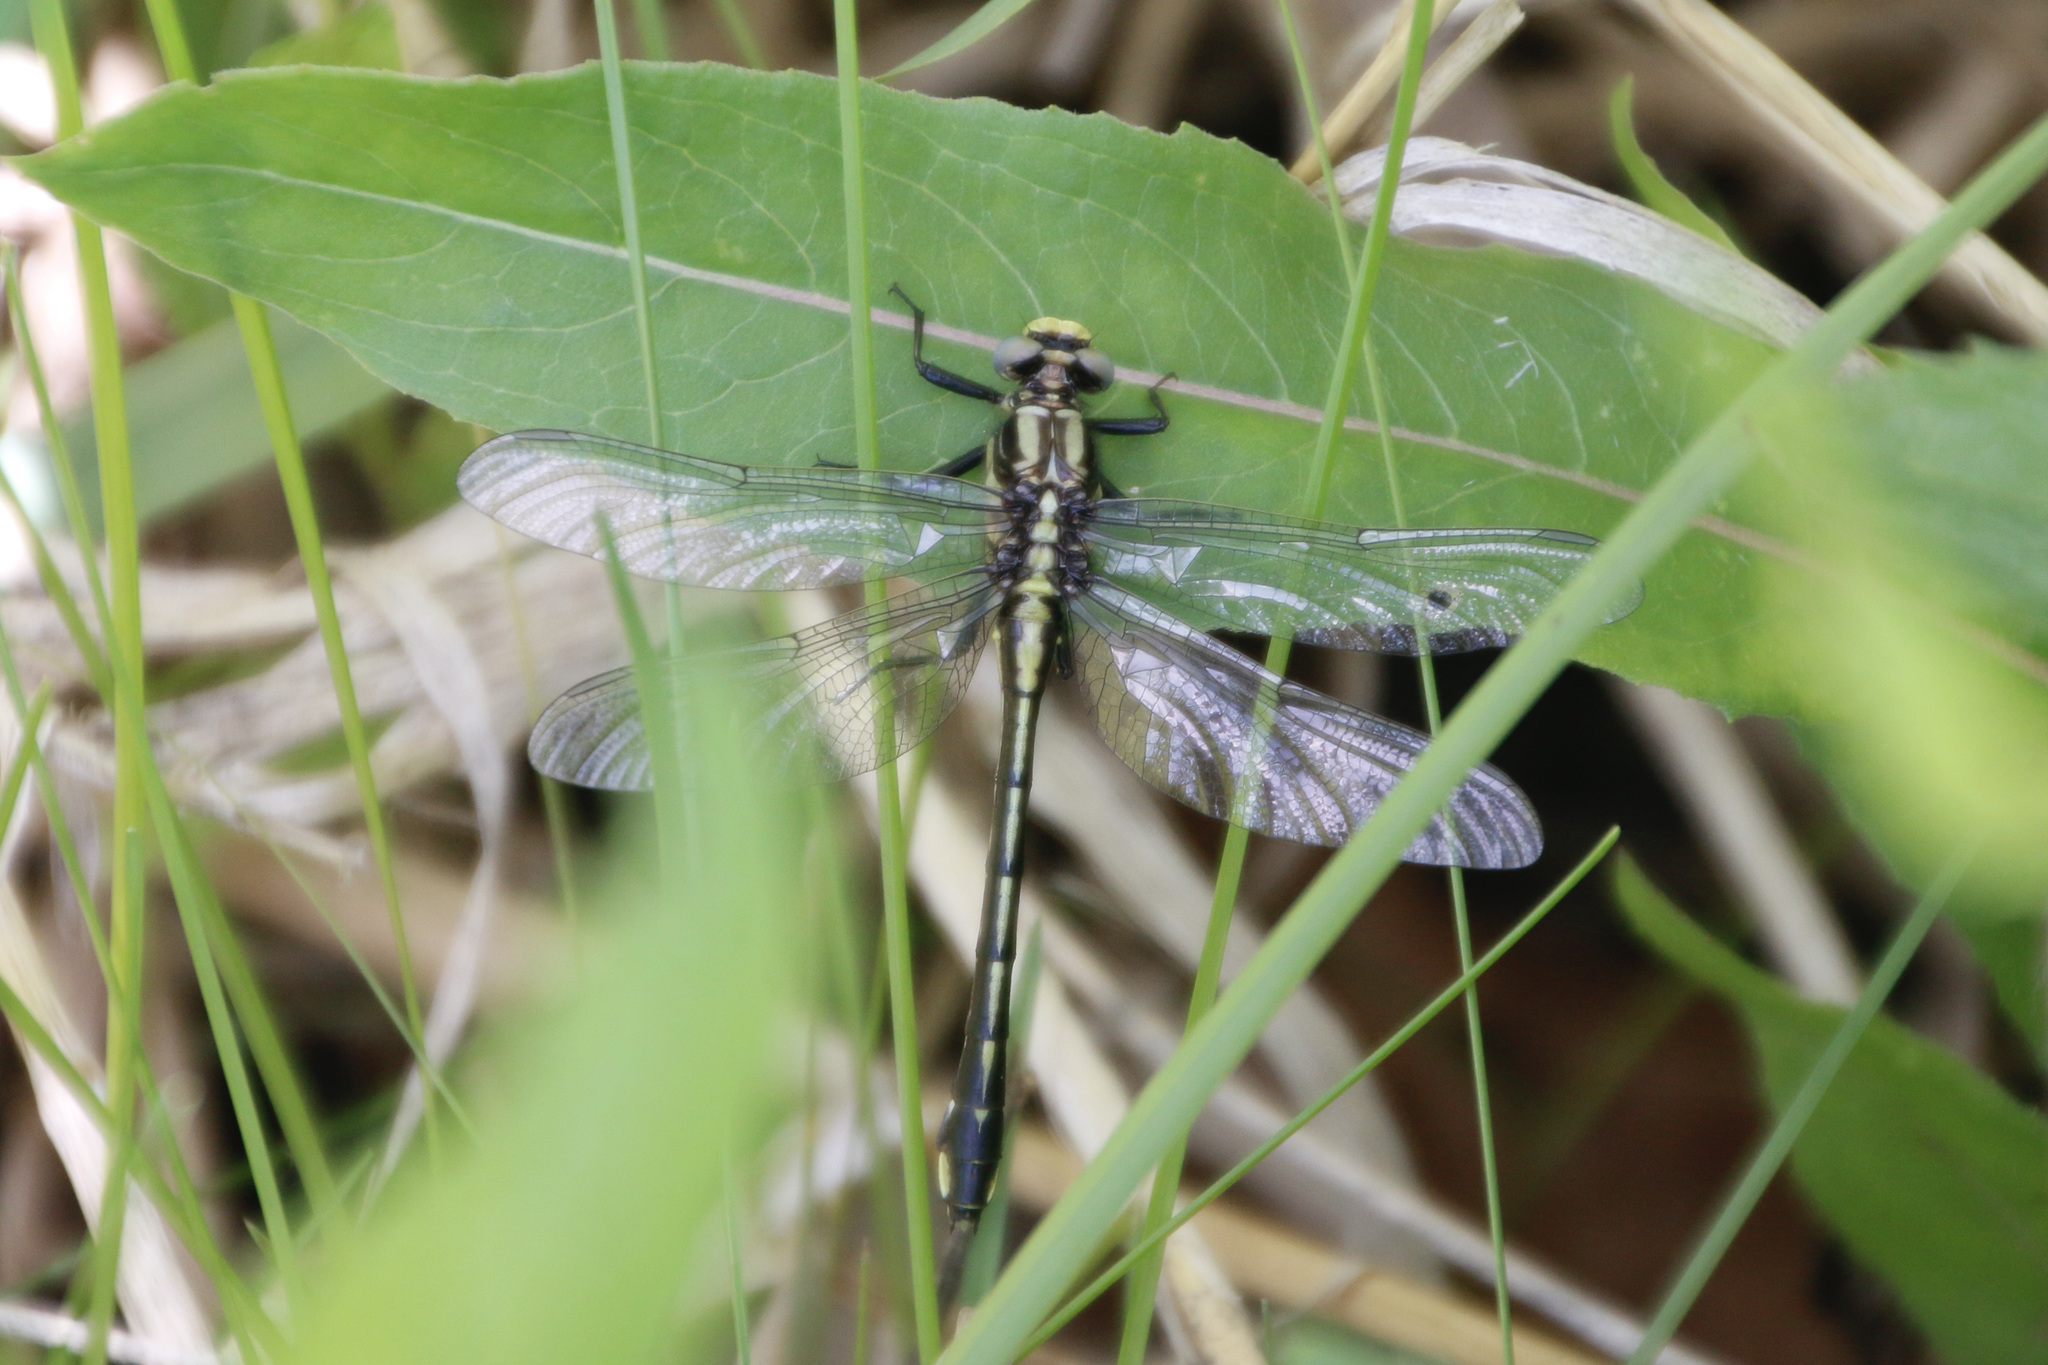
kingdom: Animalia
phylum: Arthropoda
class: Insecta
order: Odonata
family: Gomphidae
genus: Gomphurus
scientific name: Gomphurus fraternus
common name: Midland clubtail
